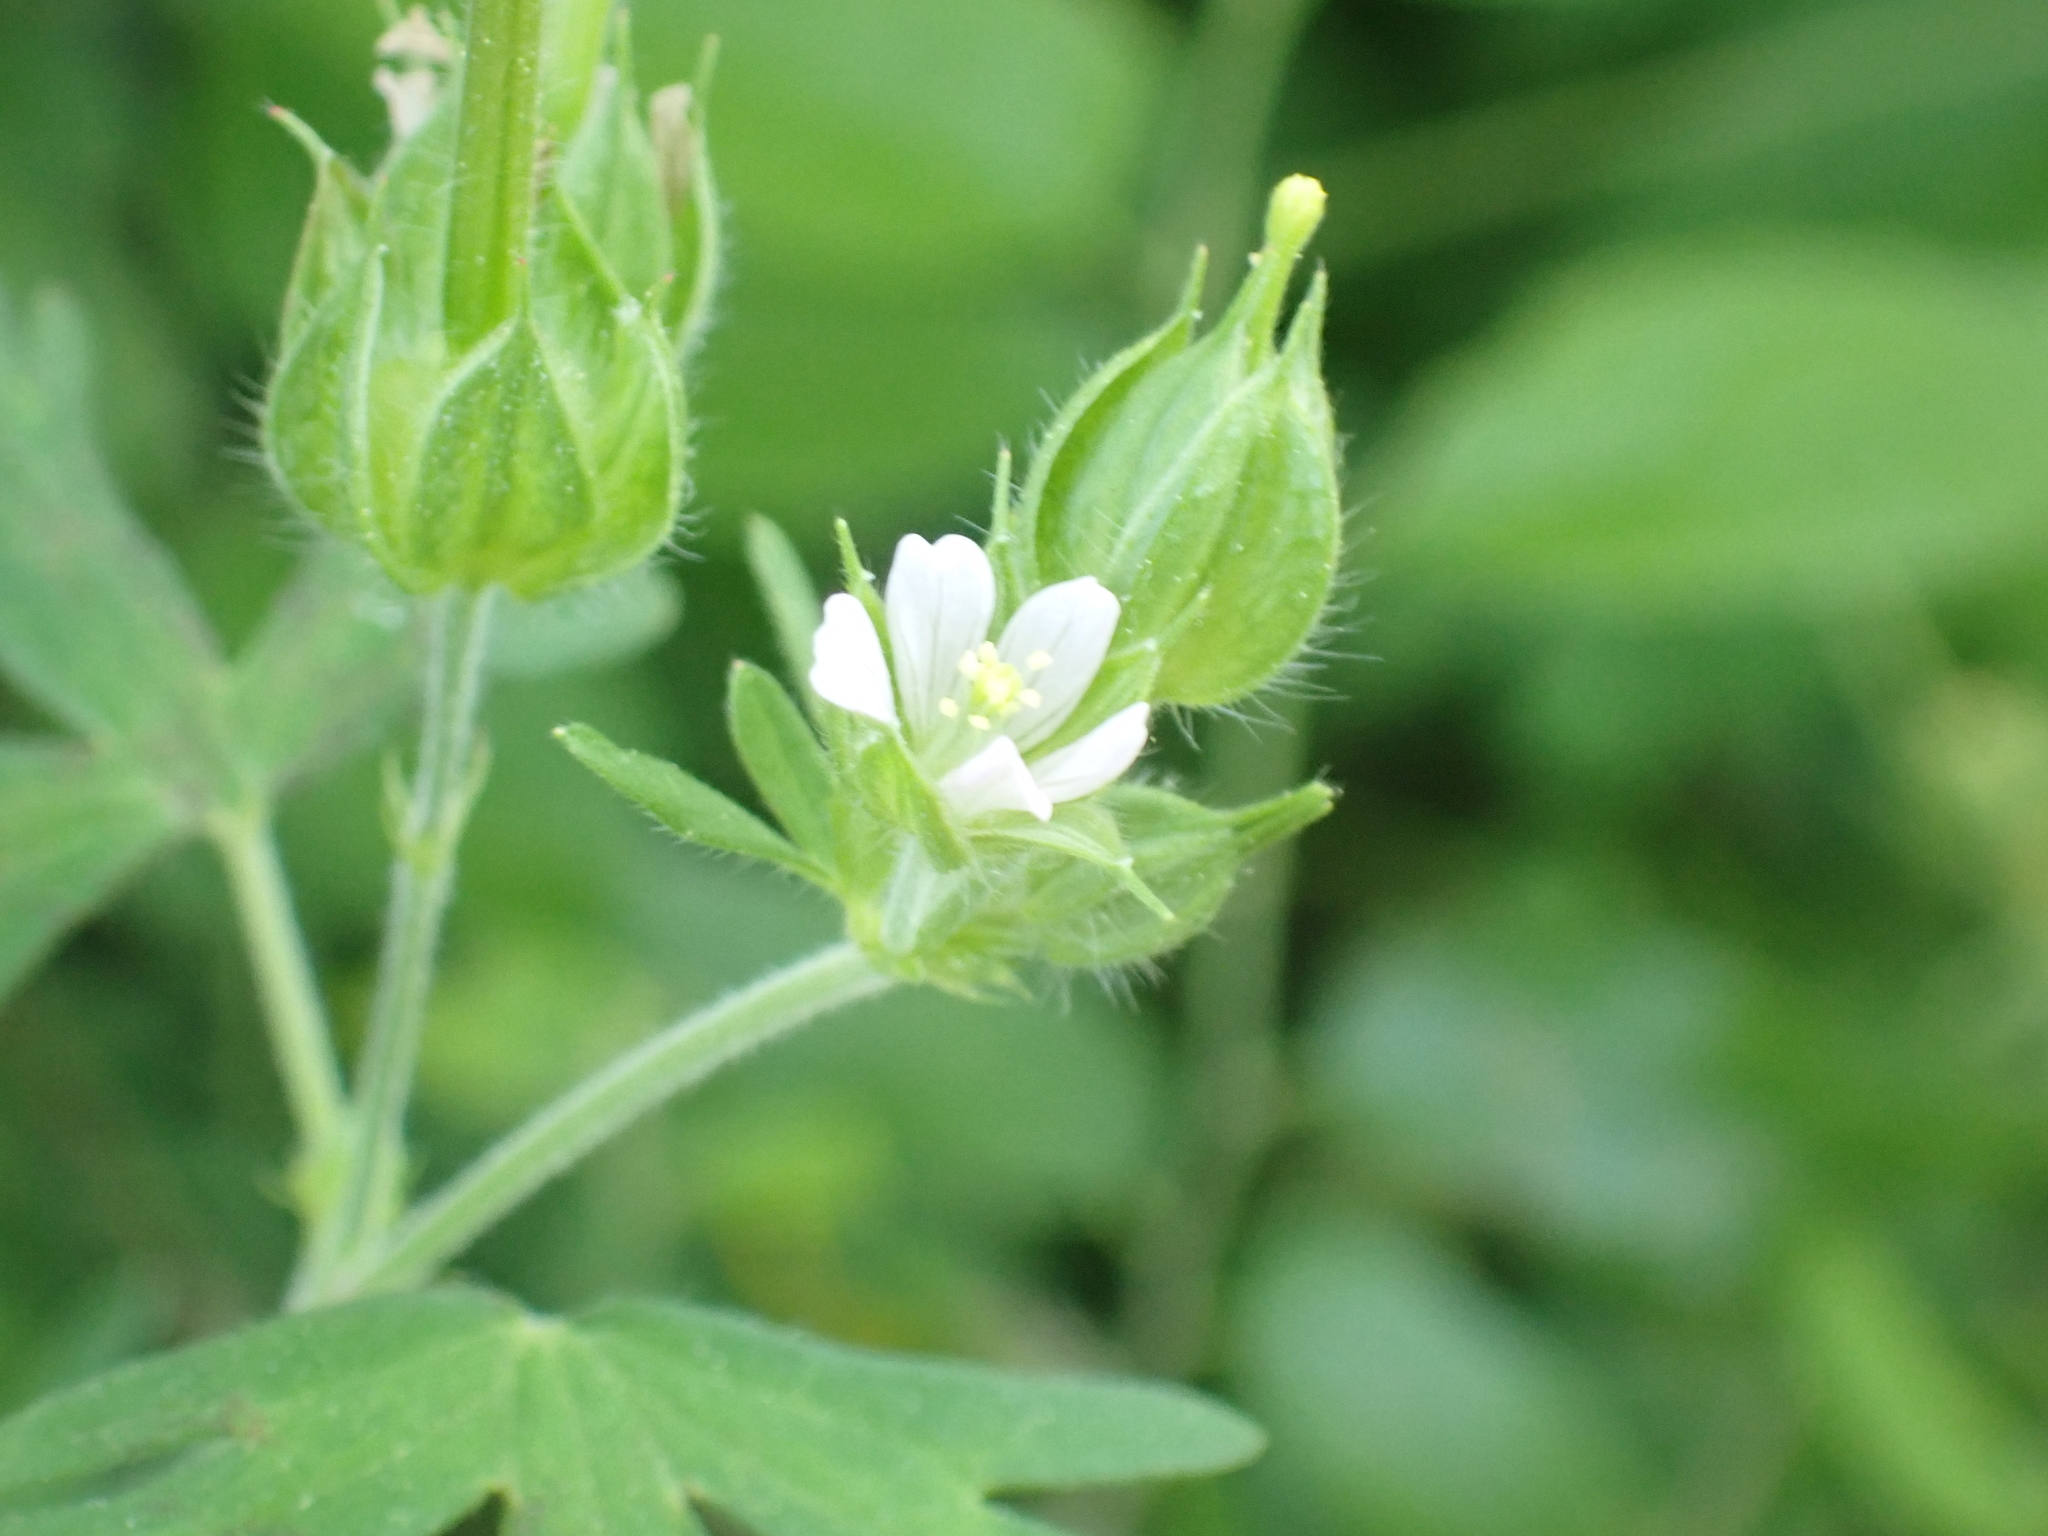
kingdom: Plantae
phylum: Tracheophyta
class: Magnoliopsida
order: Geraniales
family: Geraniaceae
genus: Geranium
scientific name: Geranium carolinianum
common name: Carolina crane's-bill
